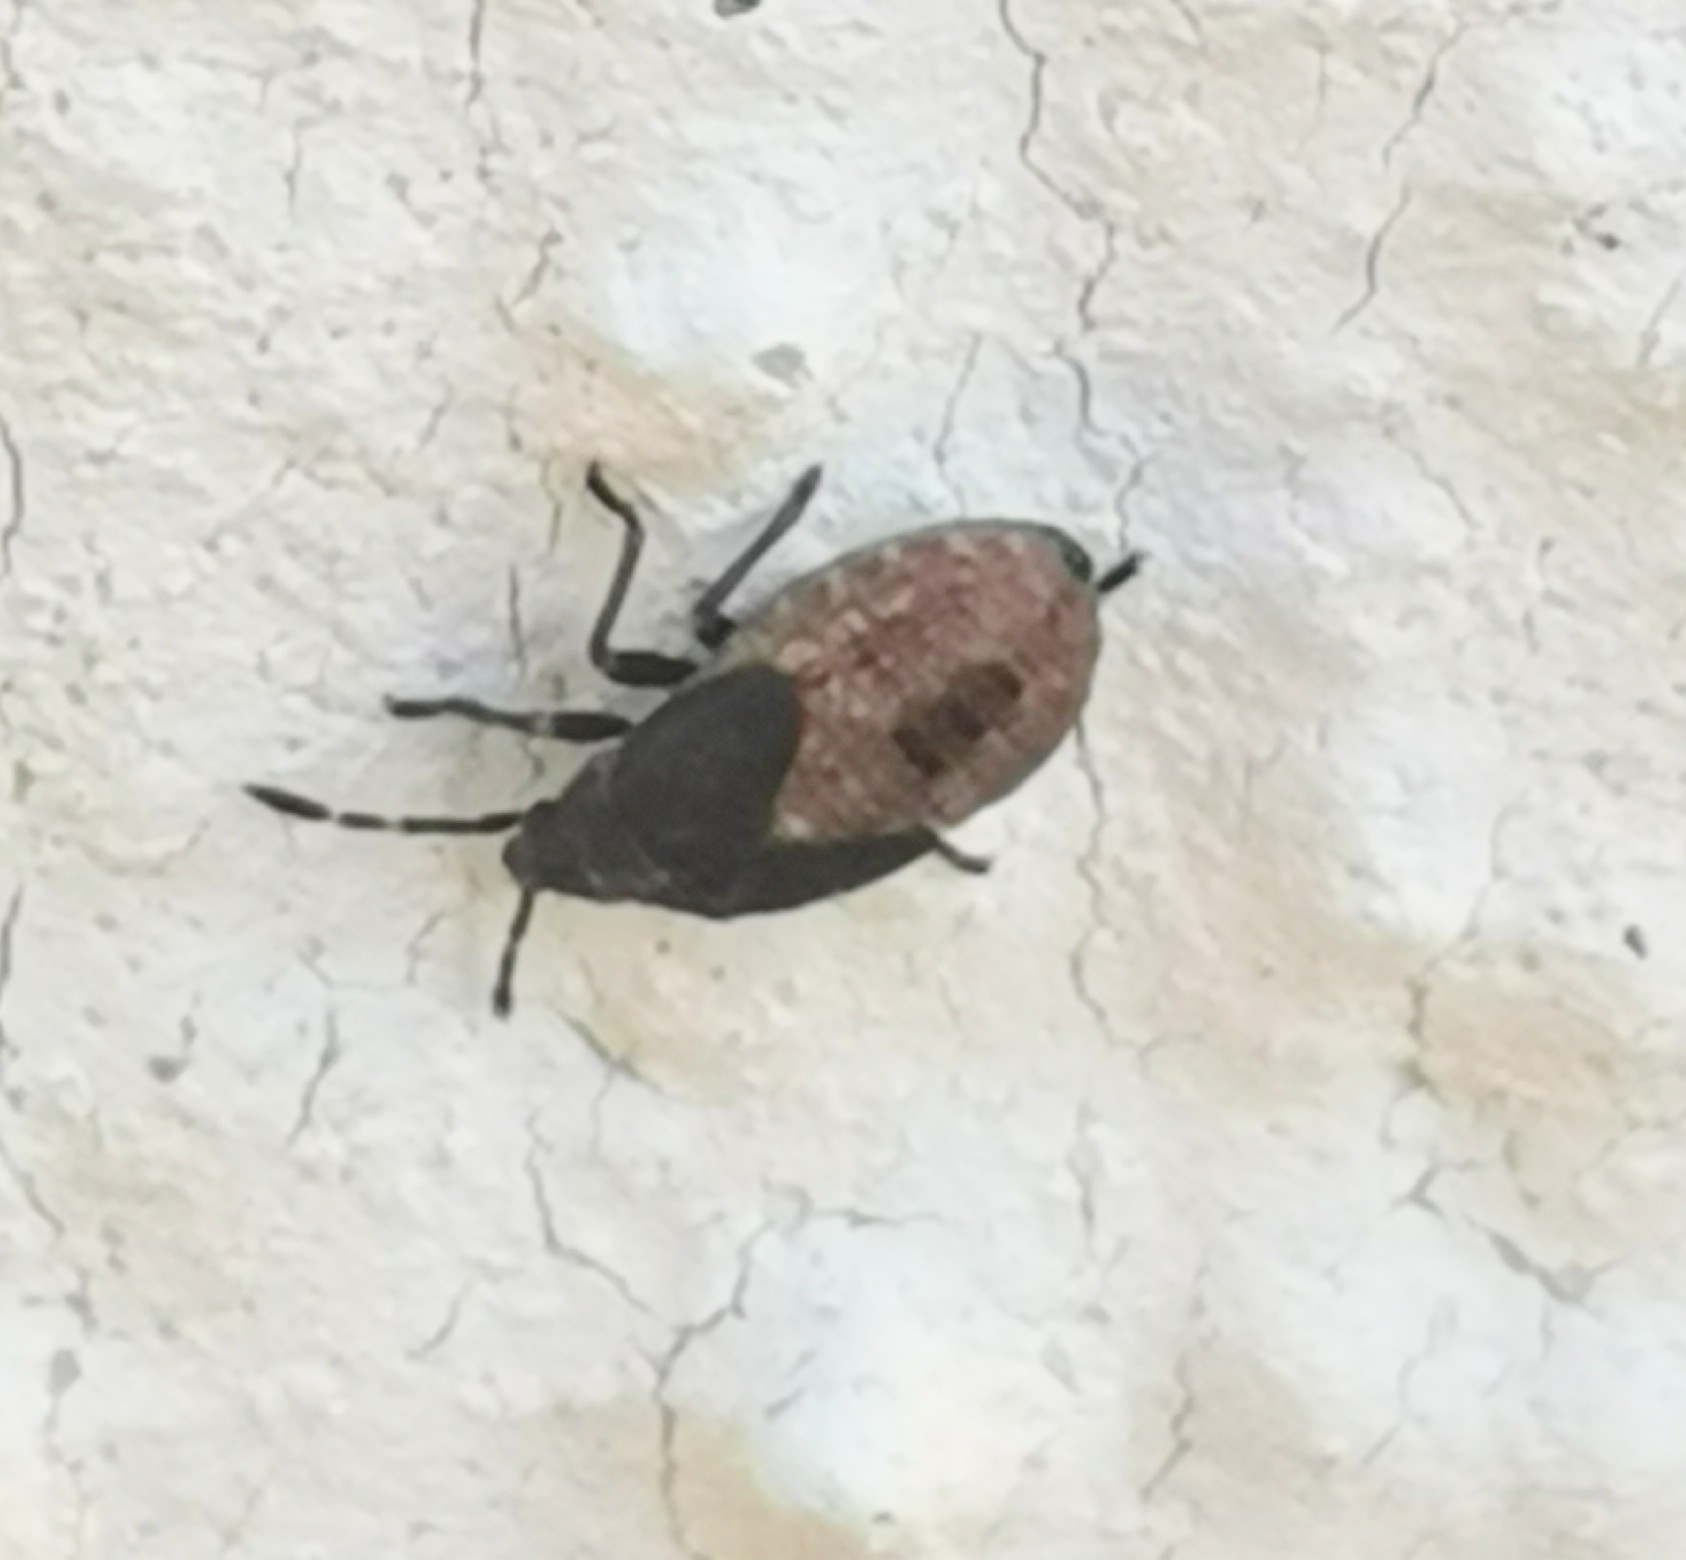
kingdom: Animalia
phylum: Arthropoda
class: Insecta
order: Hemiptera
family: Lygaeidae
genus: Kleidocerys
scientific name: Kleidocerys resedae
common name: Birch catkin bug
